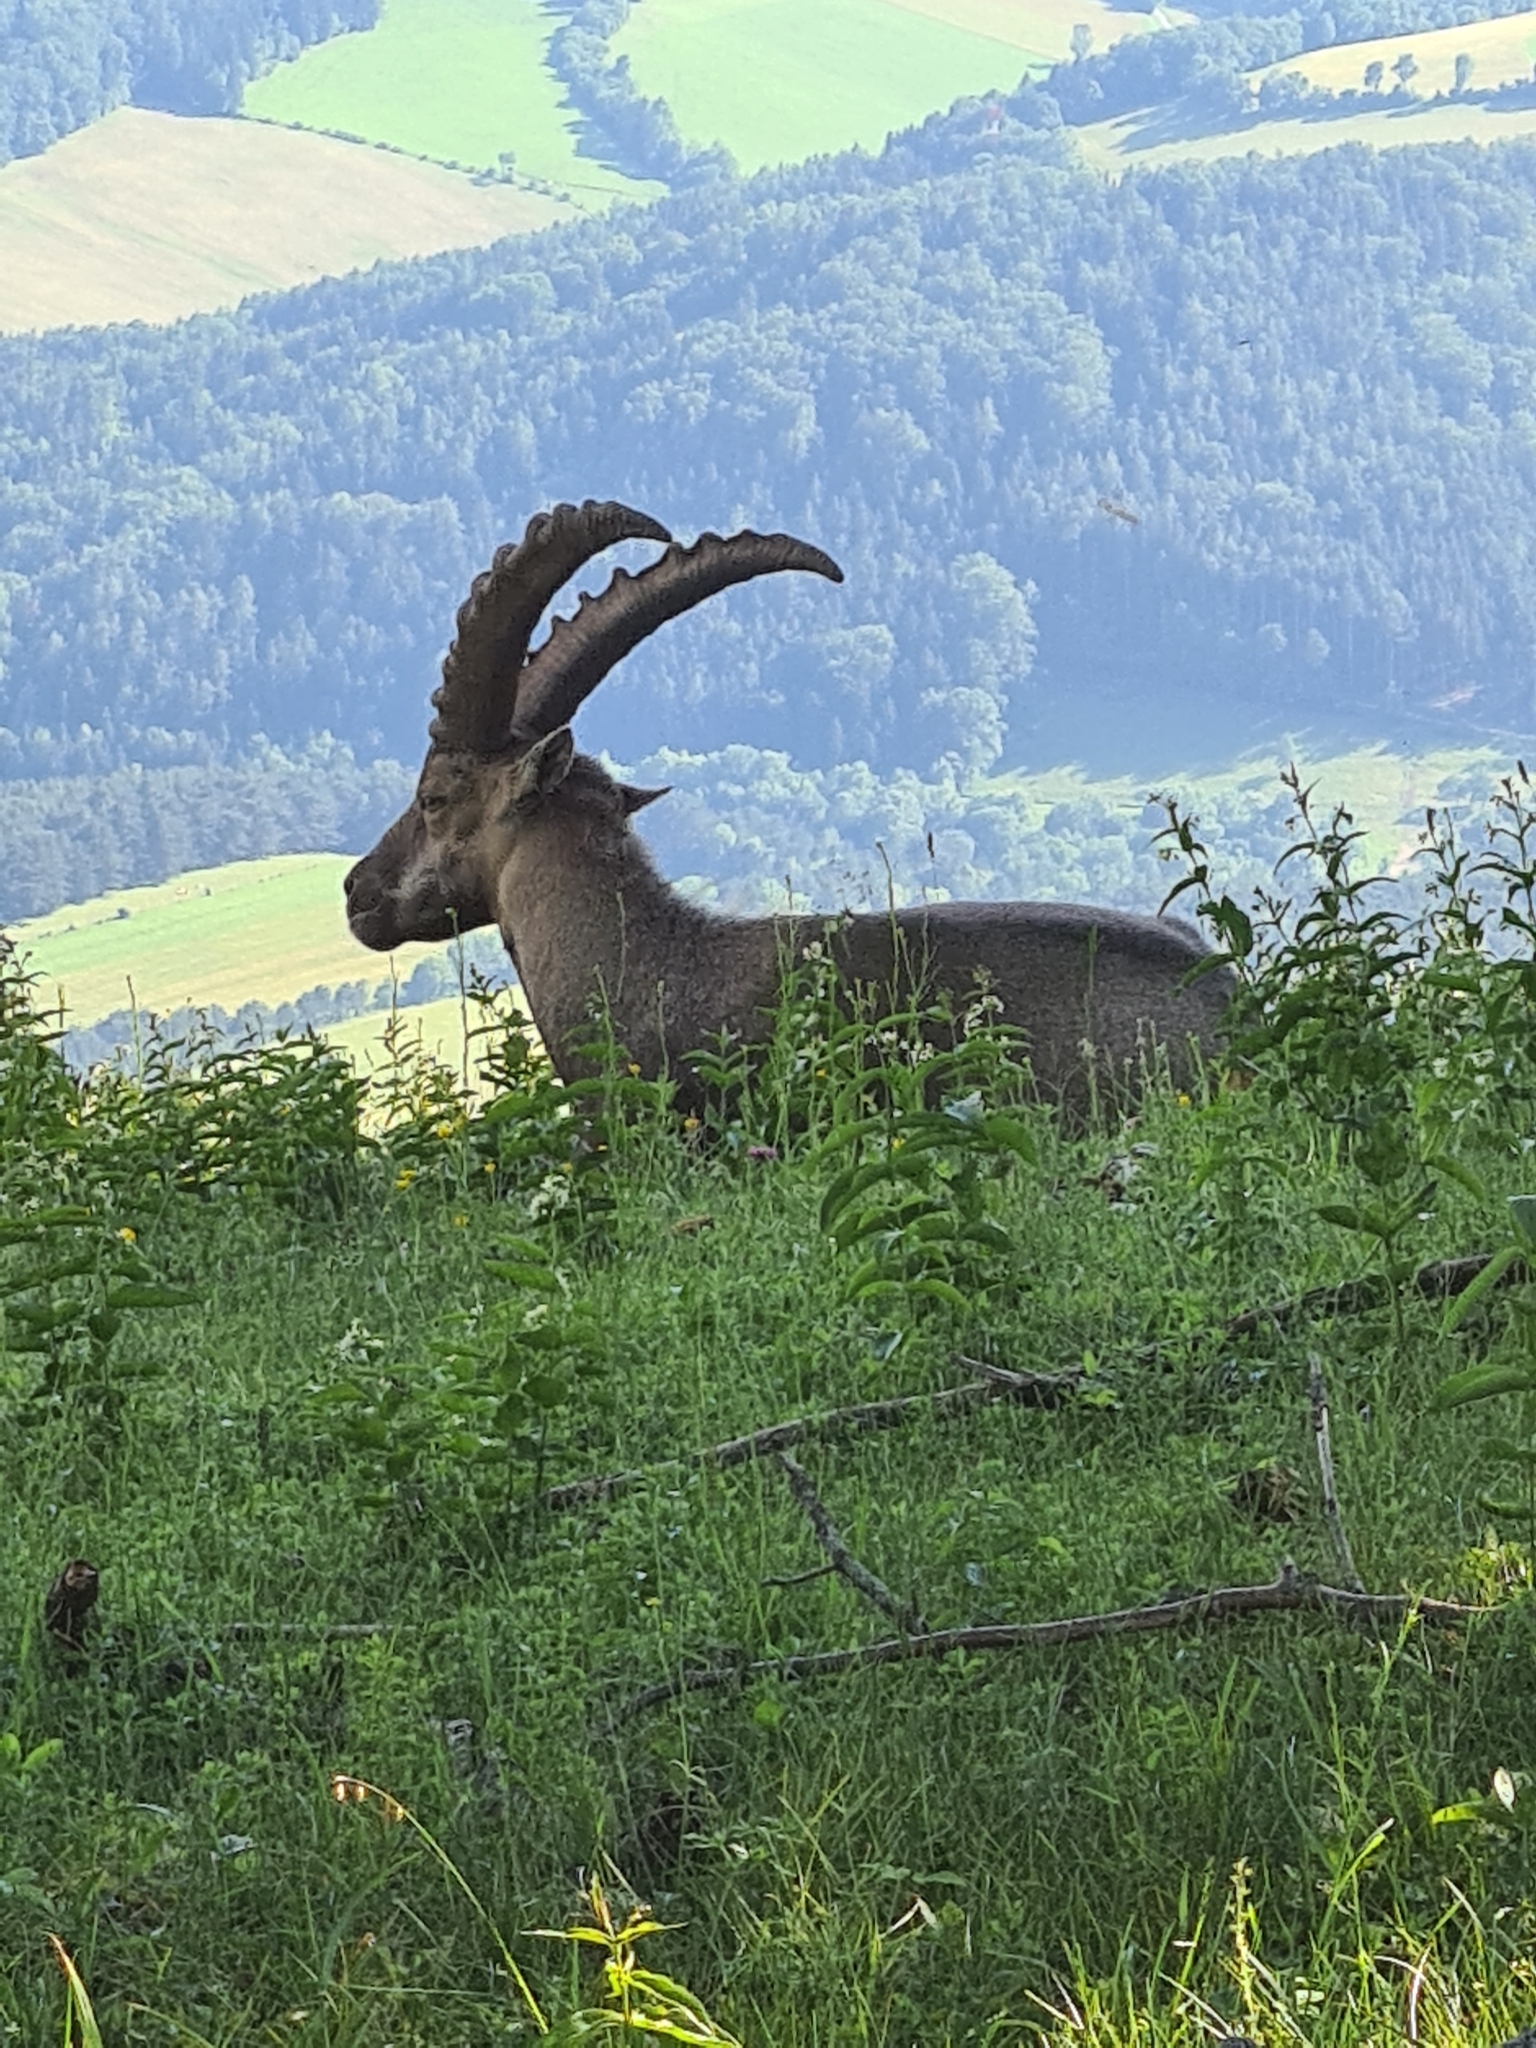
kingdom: Animalia
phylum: Chordata
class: Mammalia
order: Artiodactyla
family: Bovidae
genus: Capra
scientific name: Capra ibex
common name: Alpine ibex
